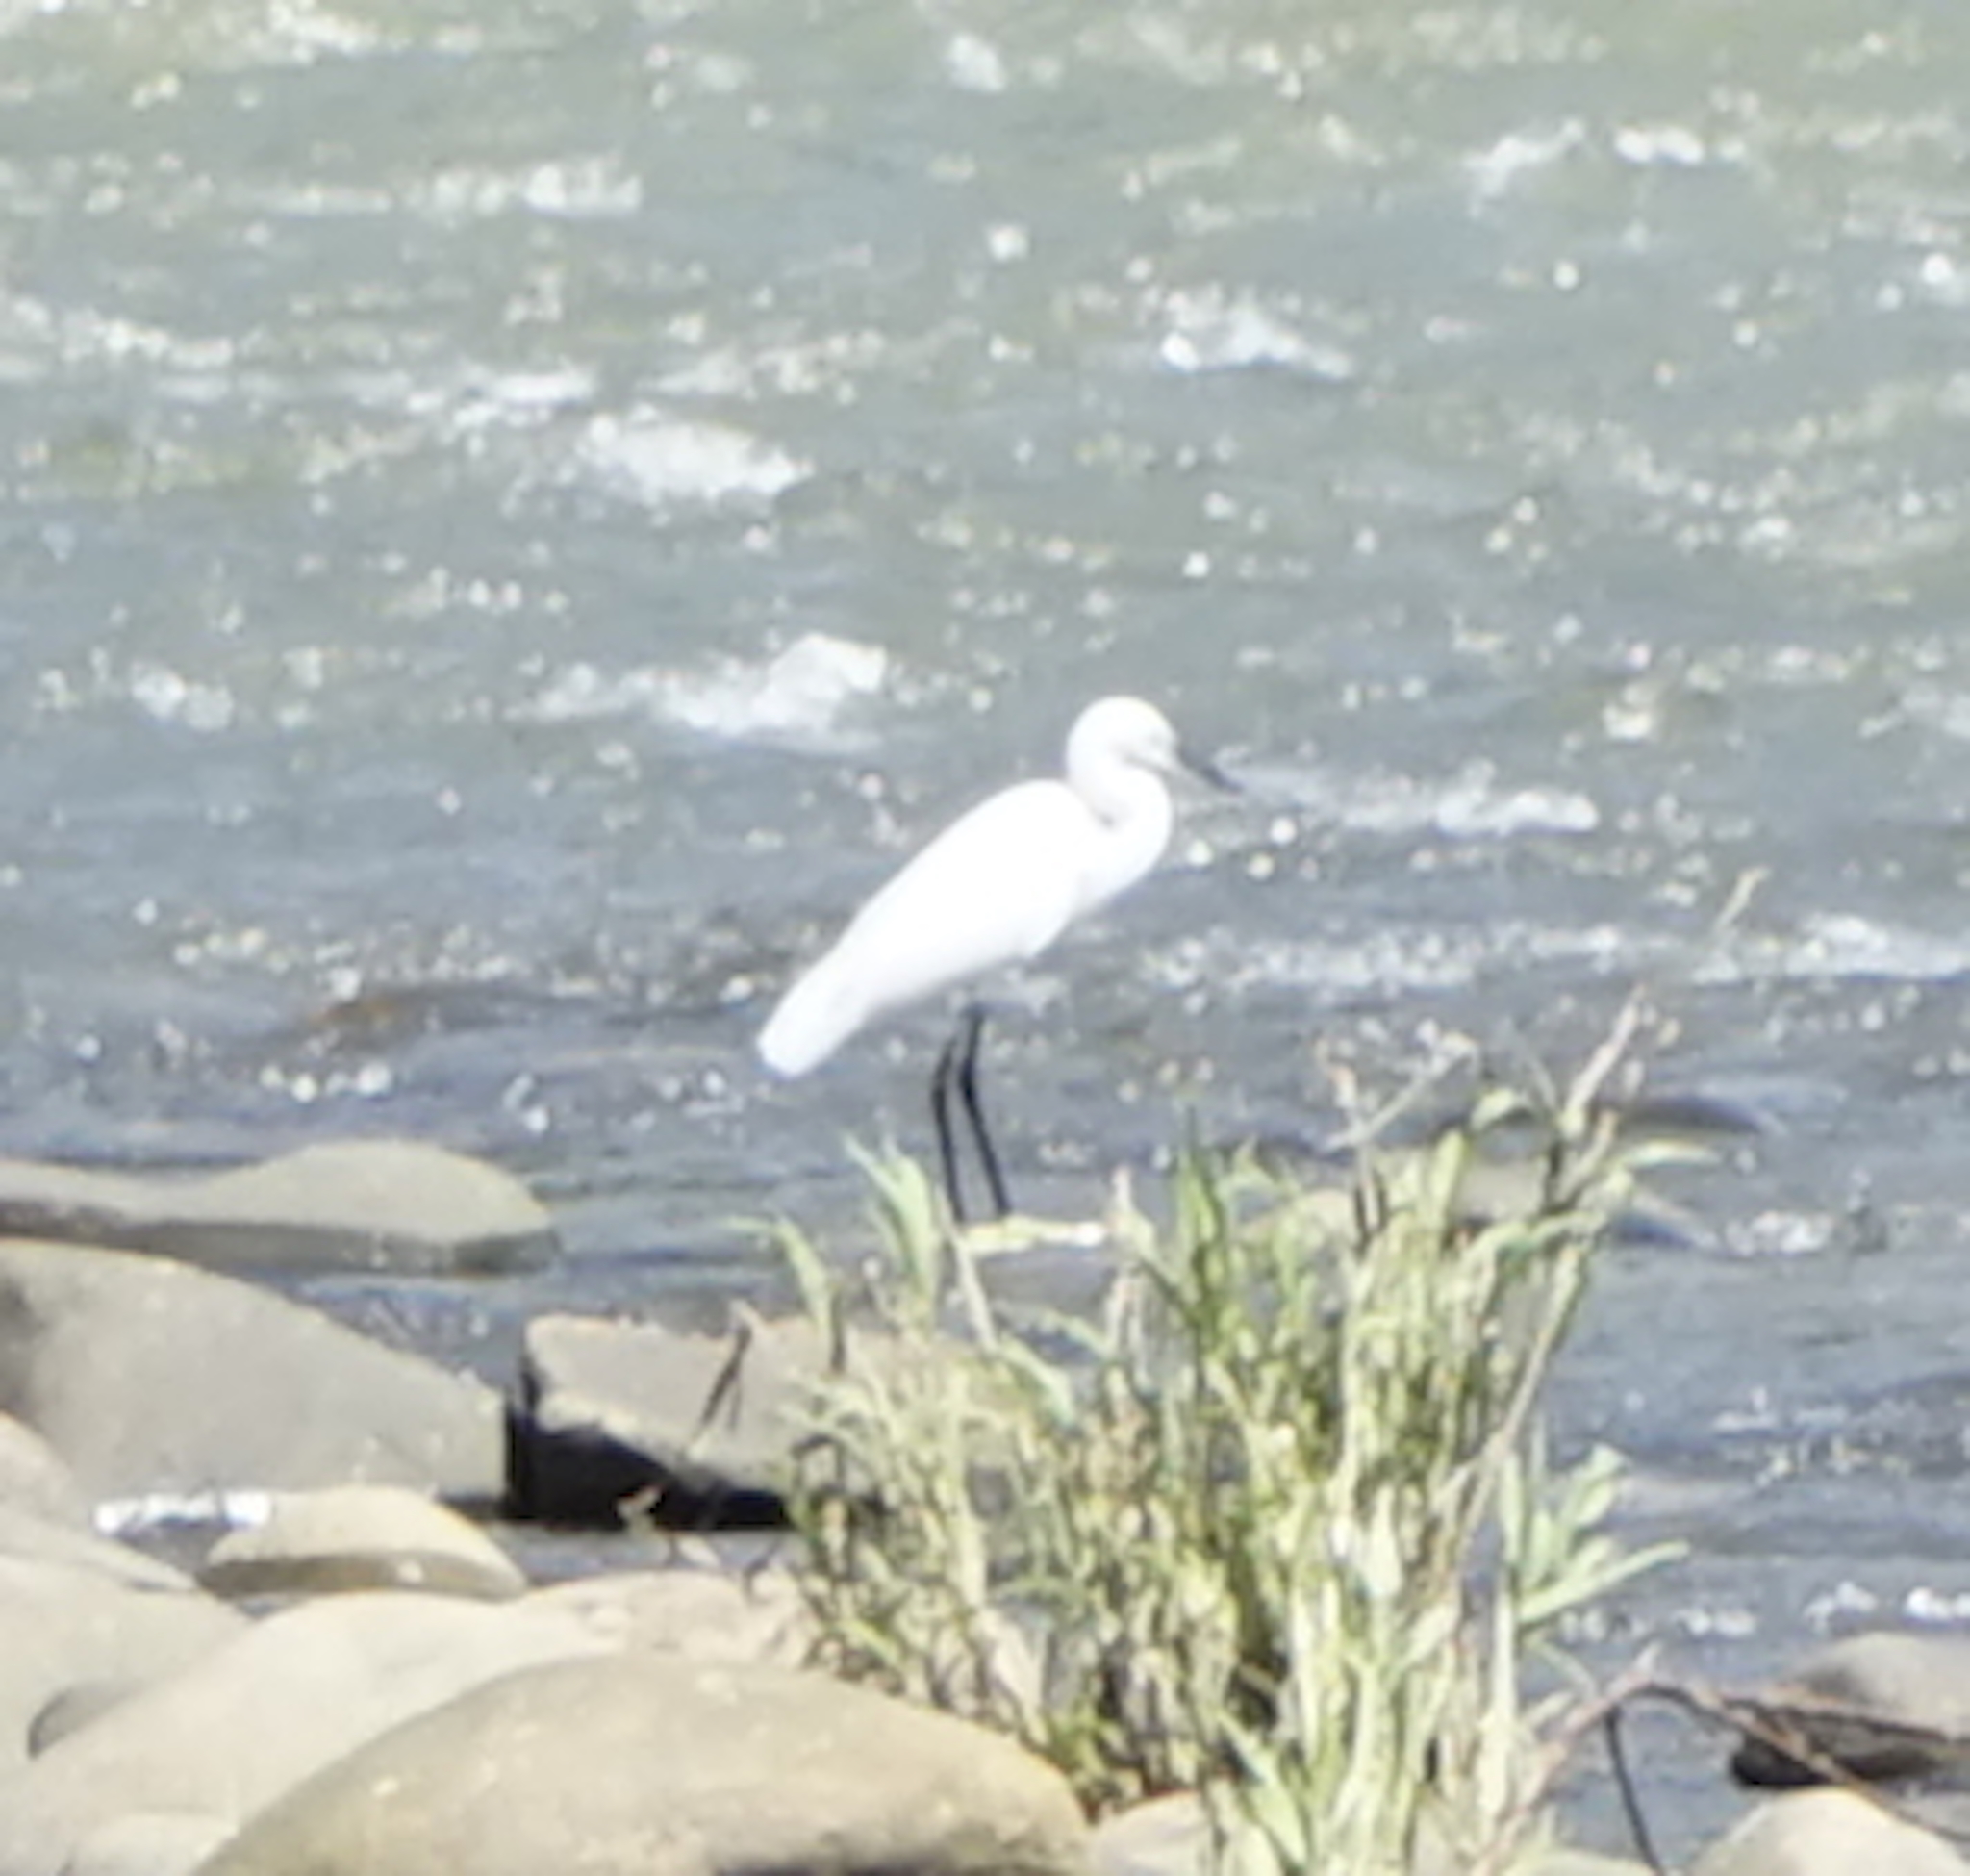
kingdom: Animalia
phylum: Chordata
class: Aves
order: Pelecaniformes
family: Ardeidae
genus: Egretta
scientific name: Egretta garzetta
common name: Little egret
